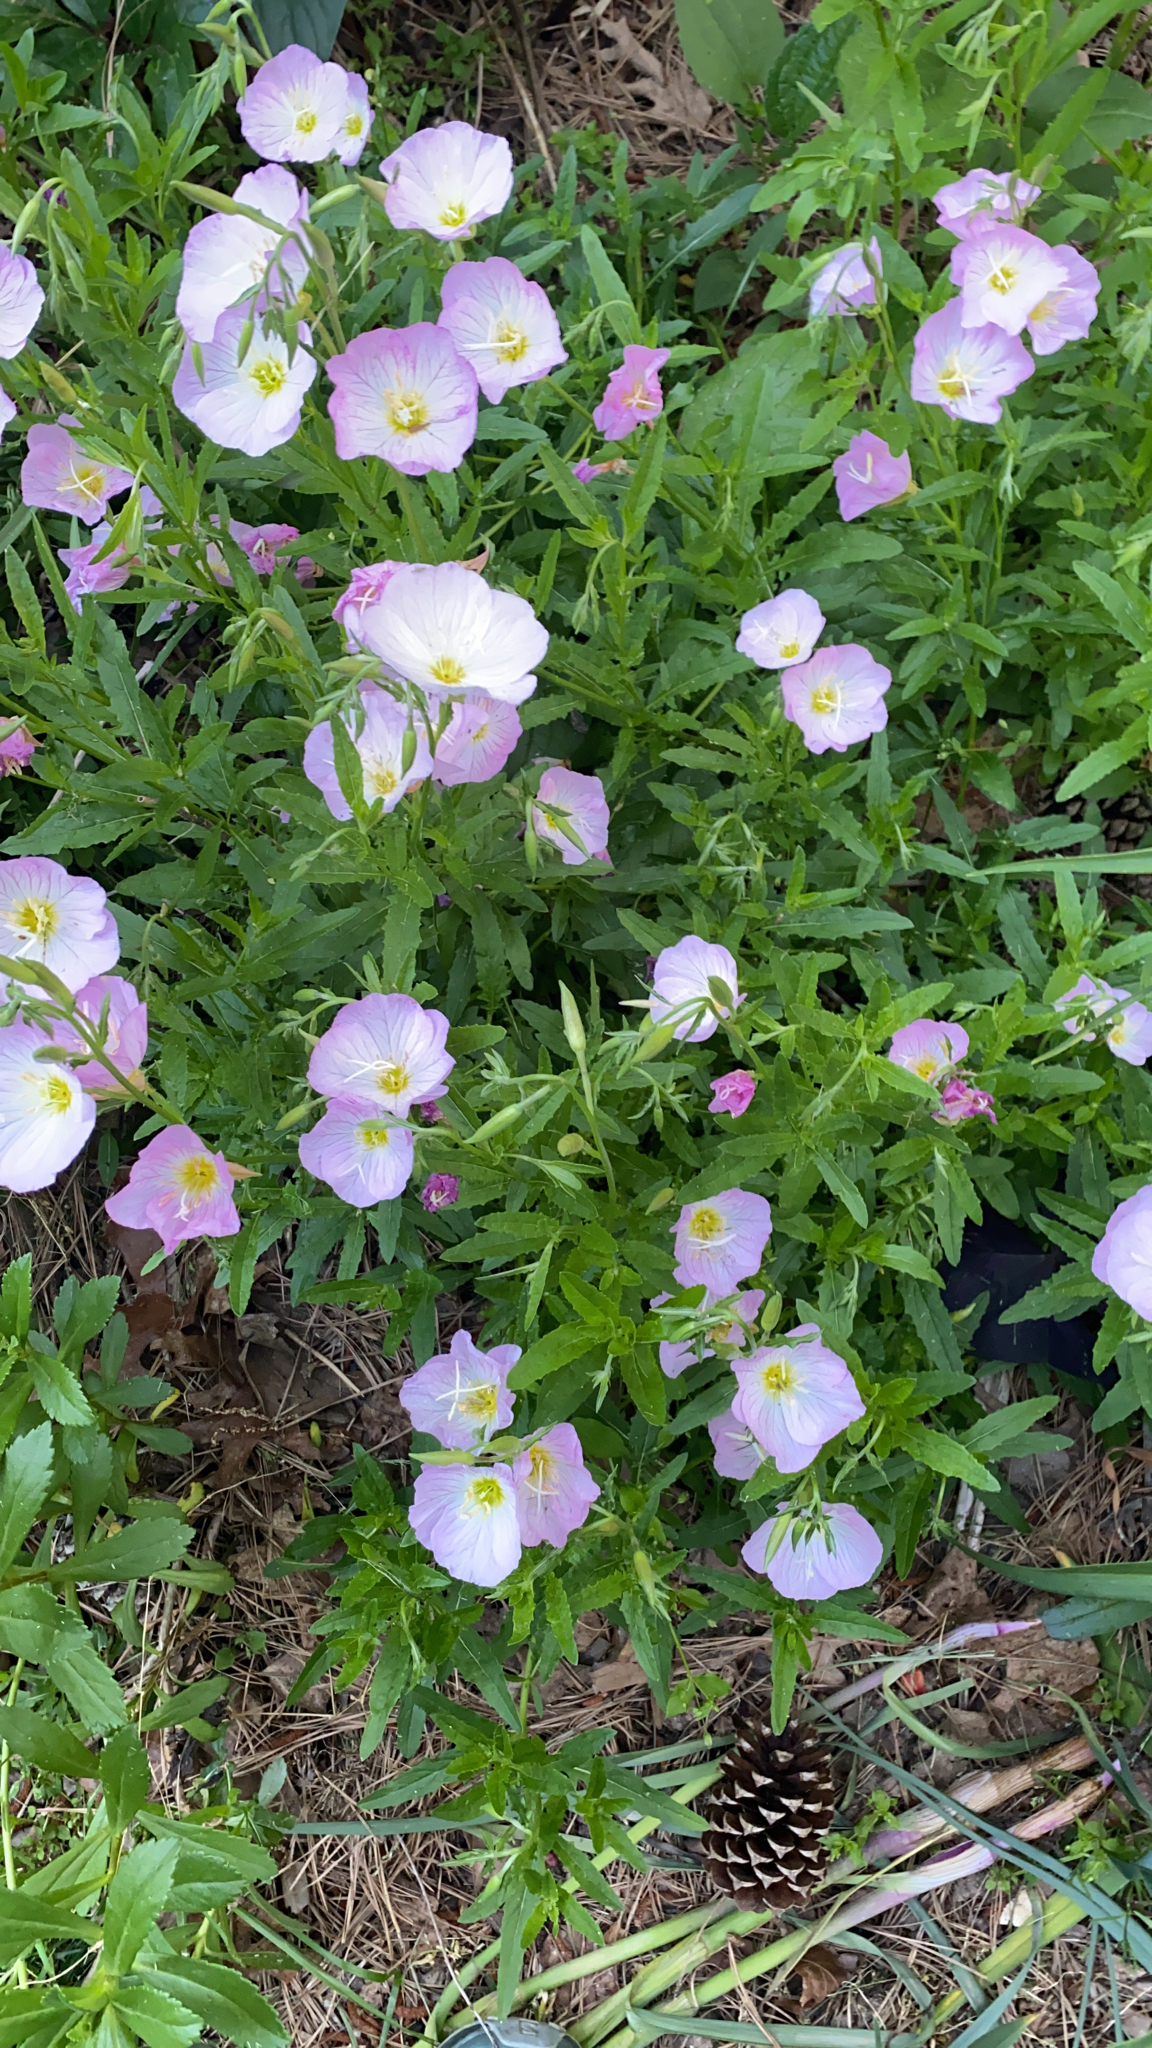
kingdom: Plantae
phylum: Tracheophyta
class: Magnoliopsida
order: Myrtales
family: Onagraceae
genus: Oenothera
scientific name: Oenothera speciosa
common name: White evening-primrose
